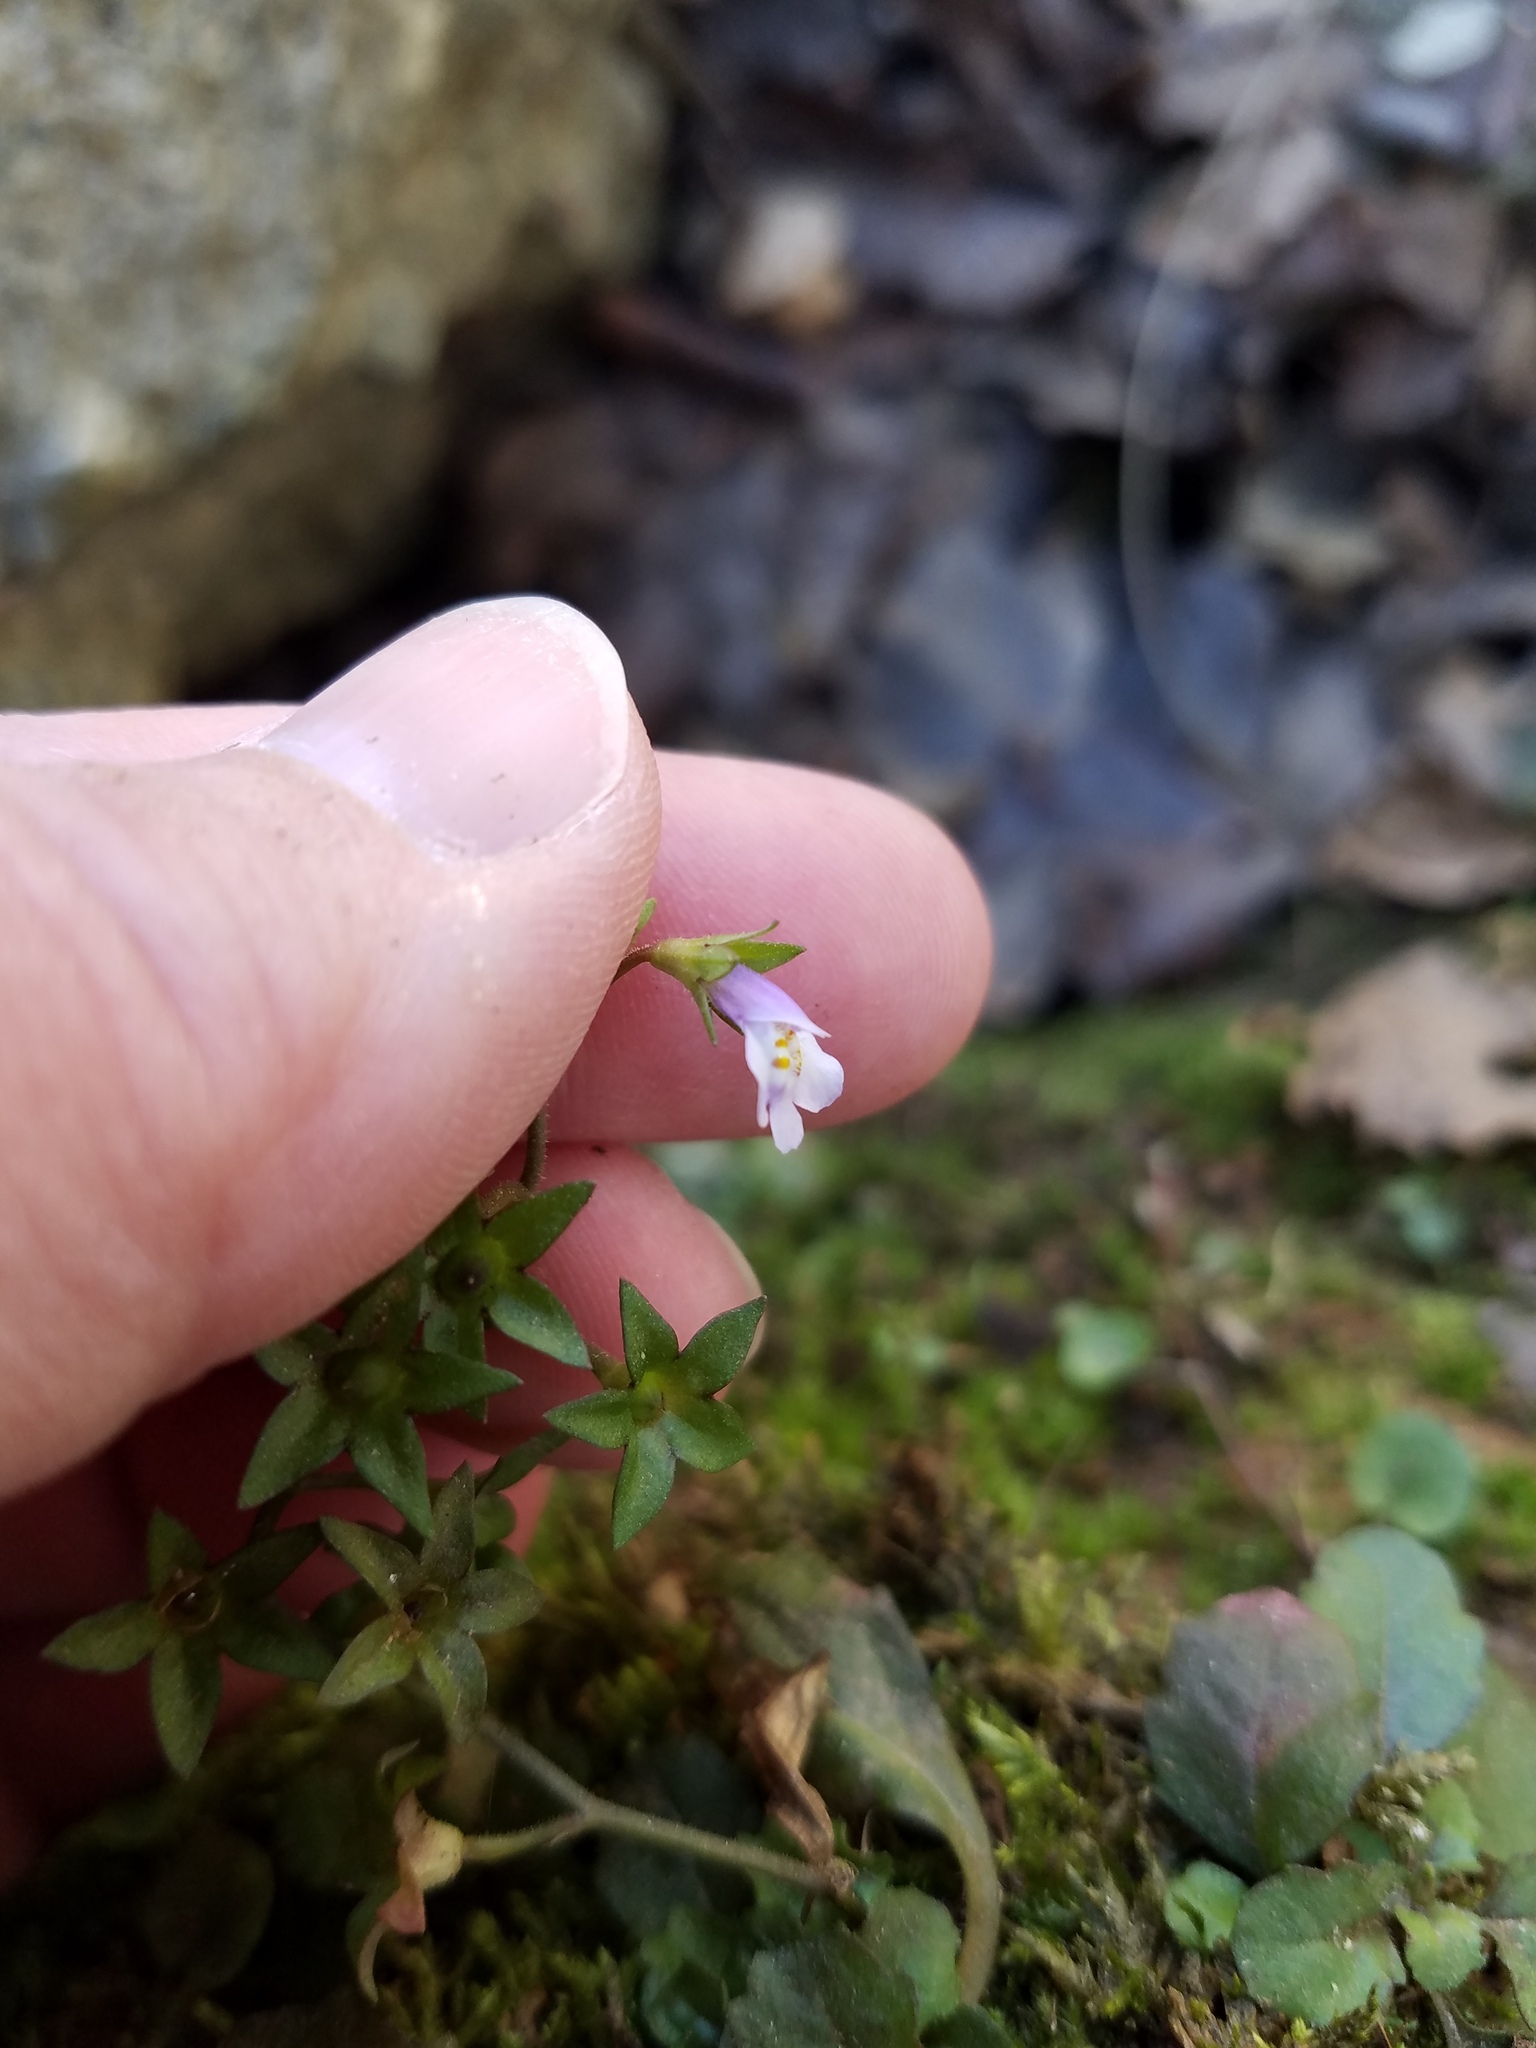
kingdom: Plantae
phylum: Tracheophyta
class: Magnoliopsida
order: Lamiales
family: Mazaceae
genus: Mazus
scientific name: Mazus pumilus
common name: Japanese mazus
